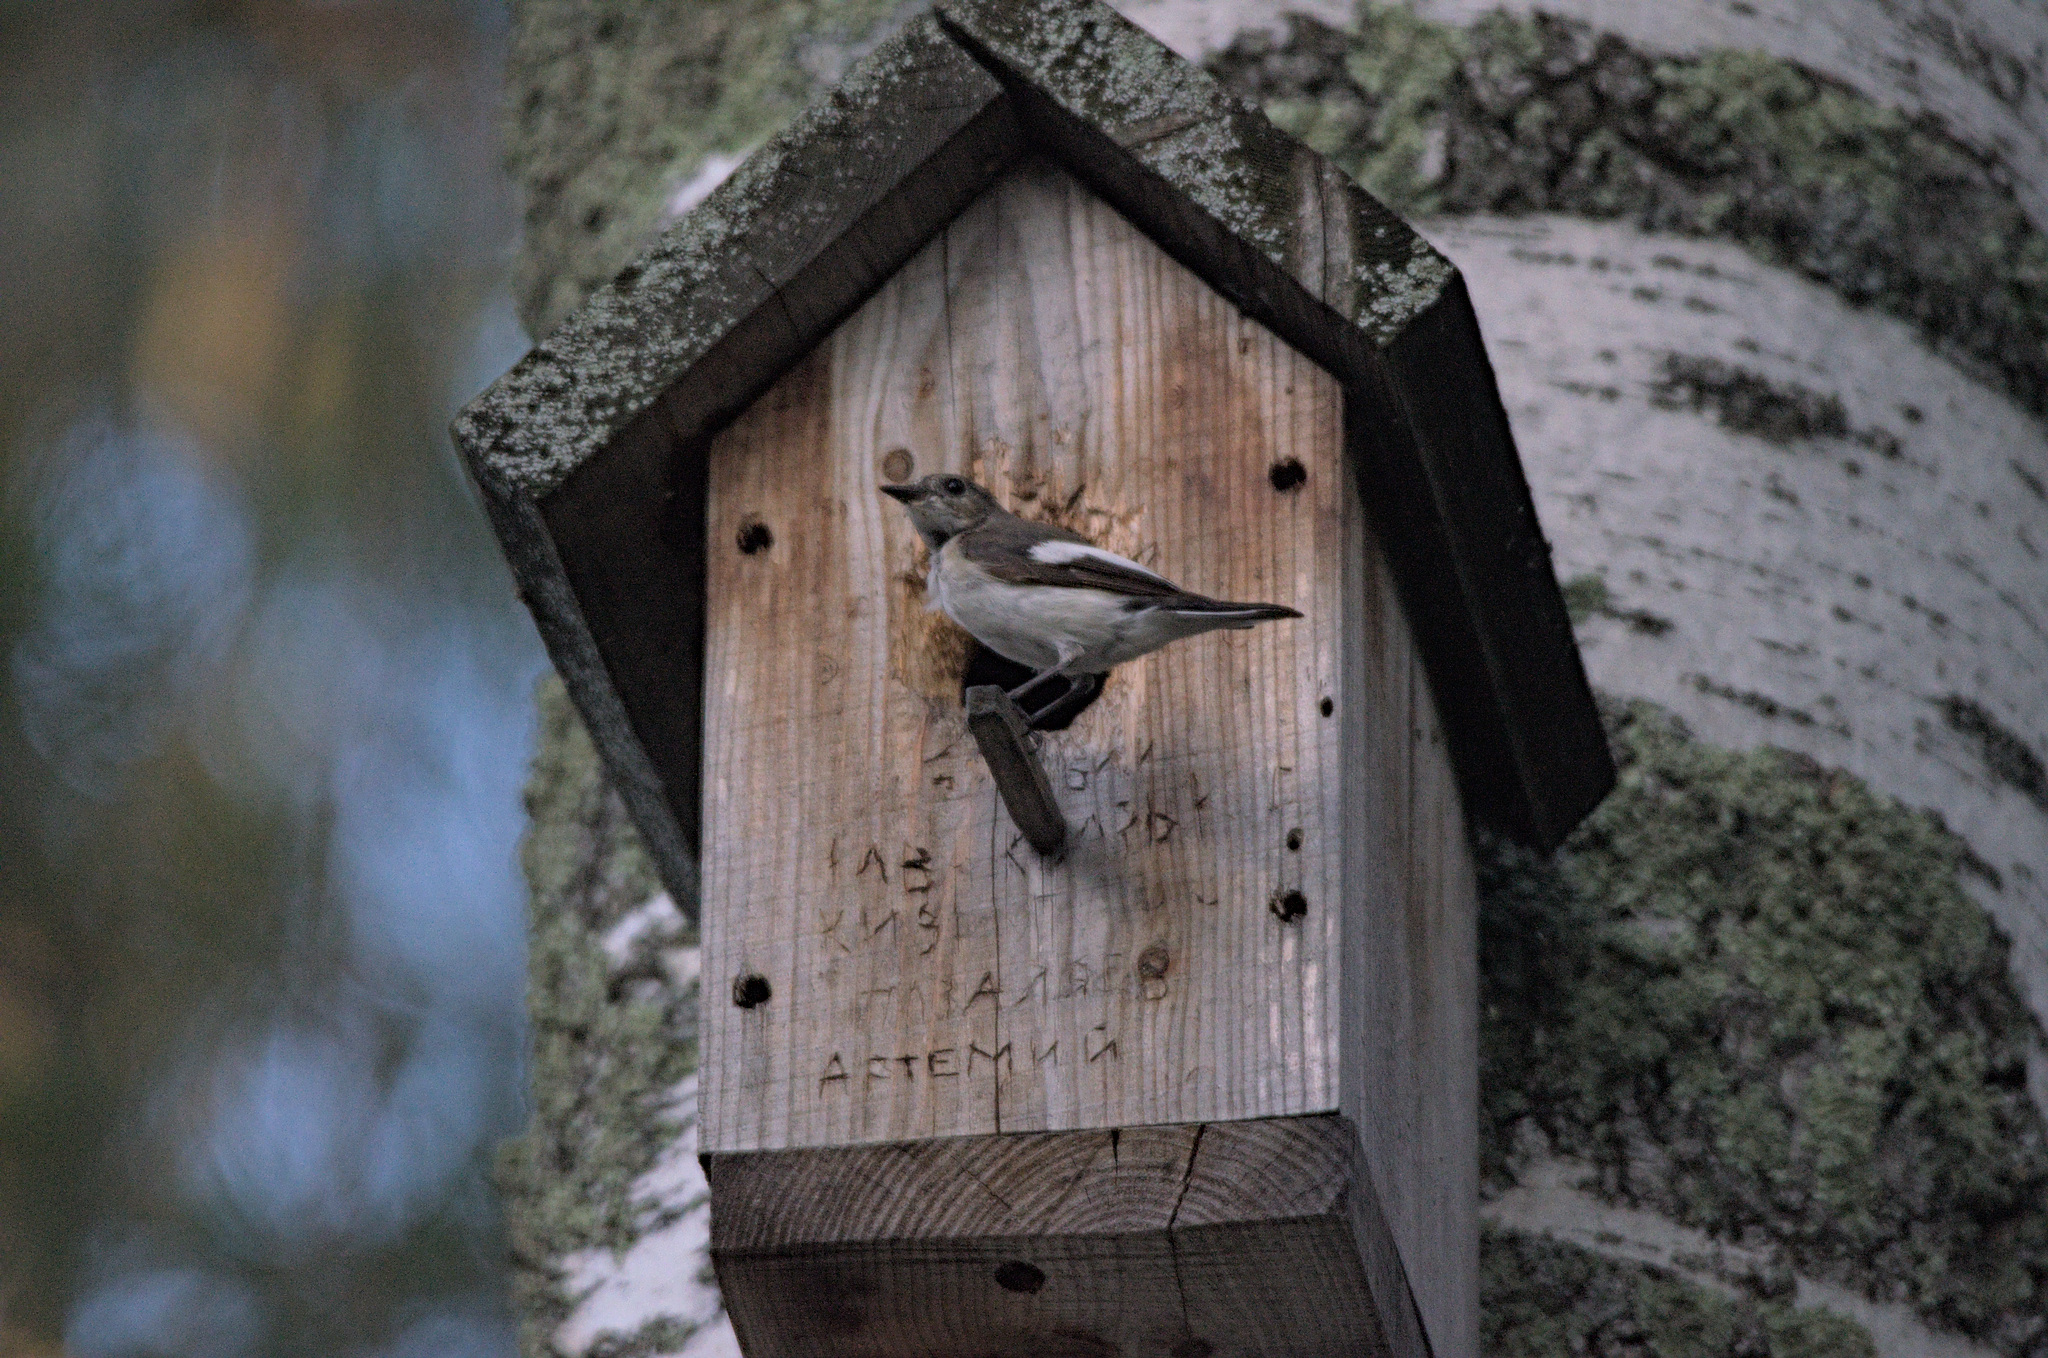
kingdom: Animalia
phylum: Chordata
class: Aves
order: Passeriformes
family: Muscicapidae
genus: Ficedula
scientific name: Ficedula hypoleuca
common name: European pied flycatcher
